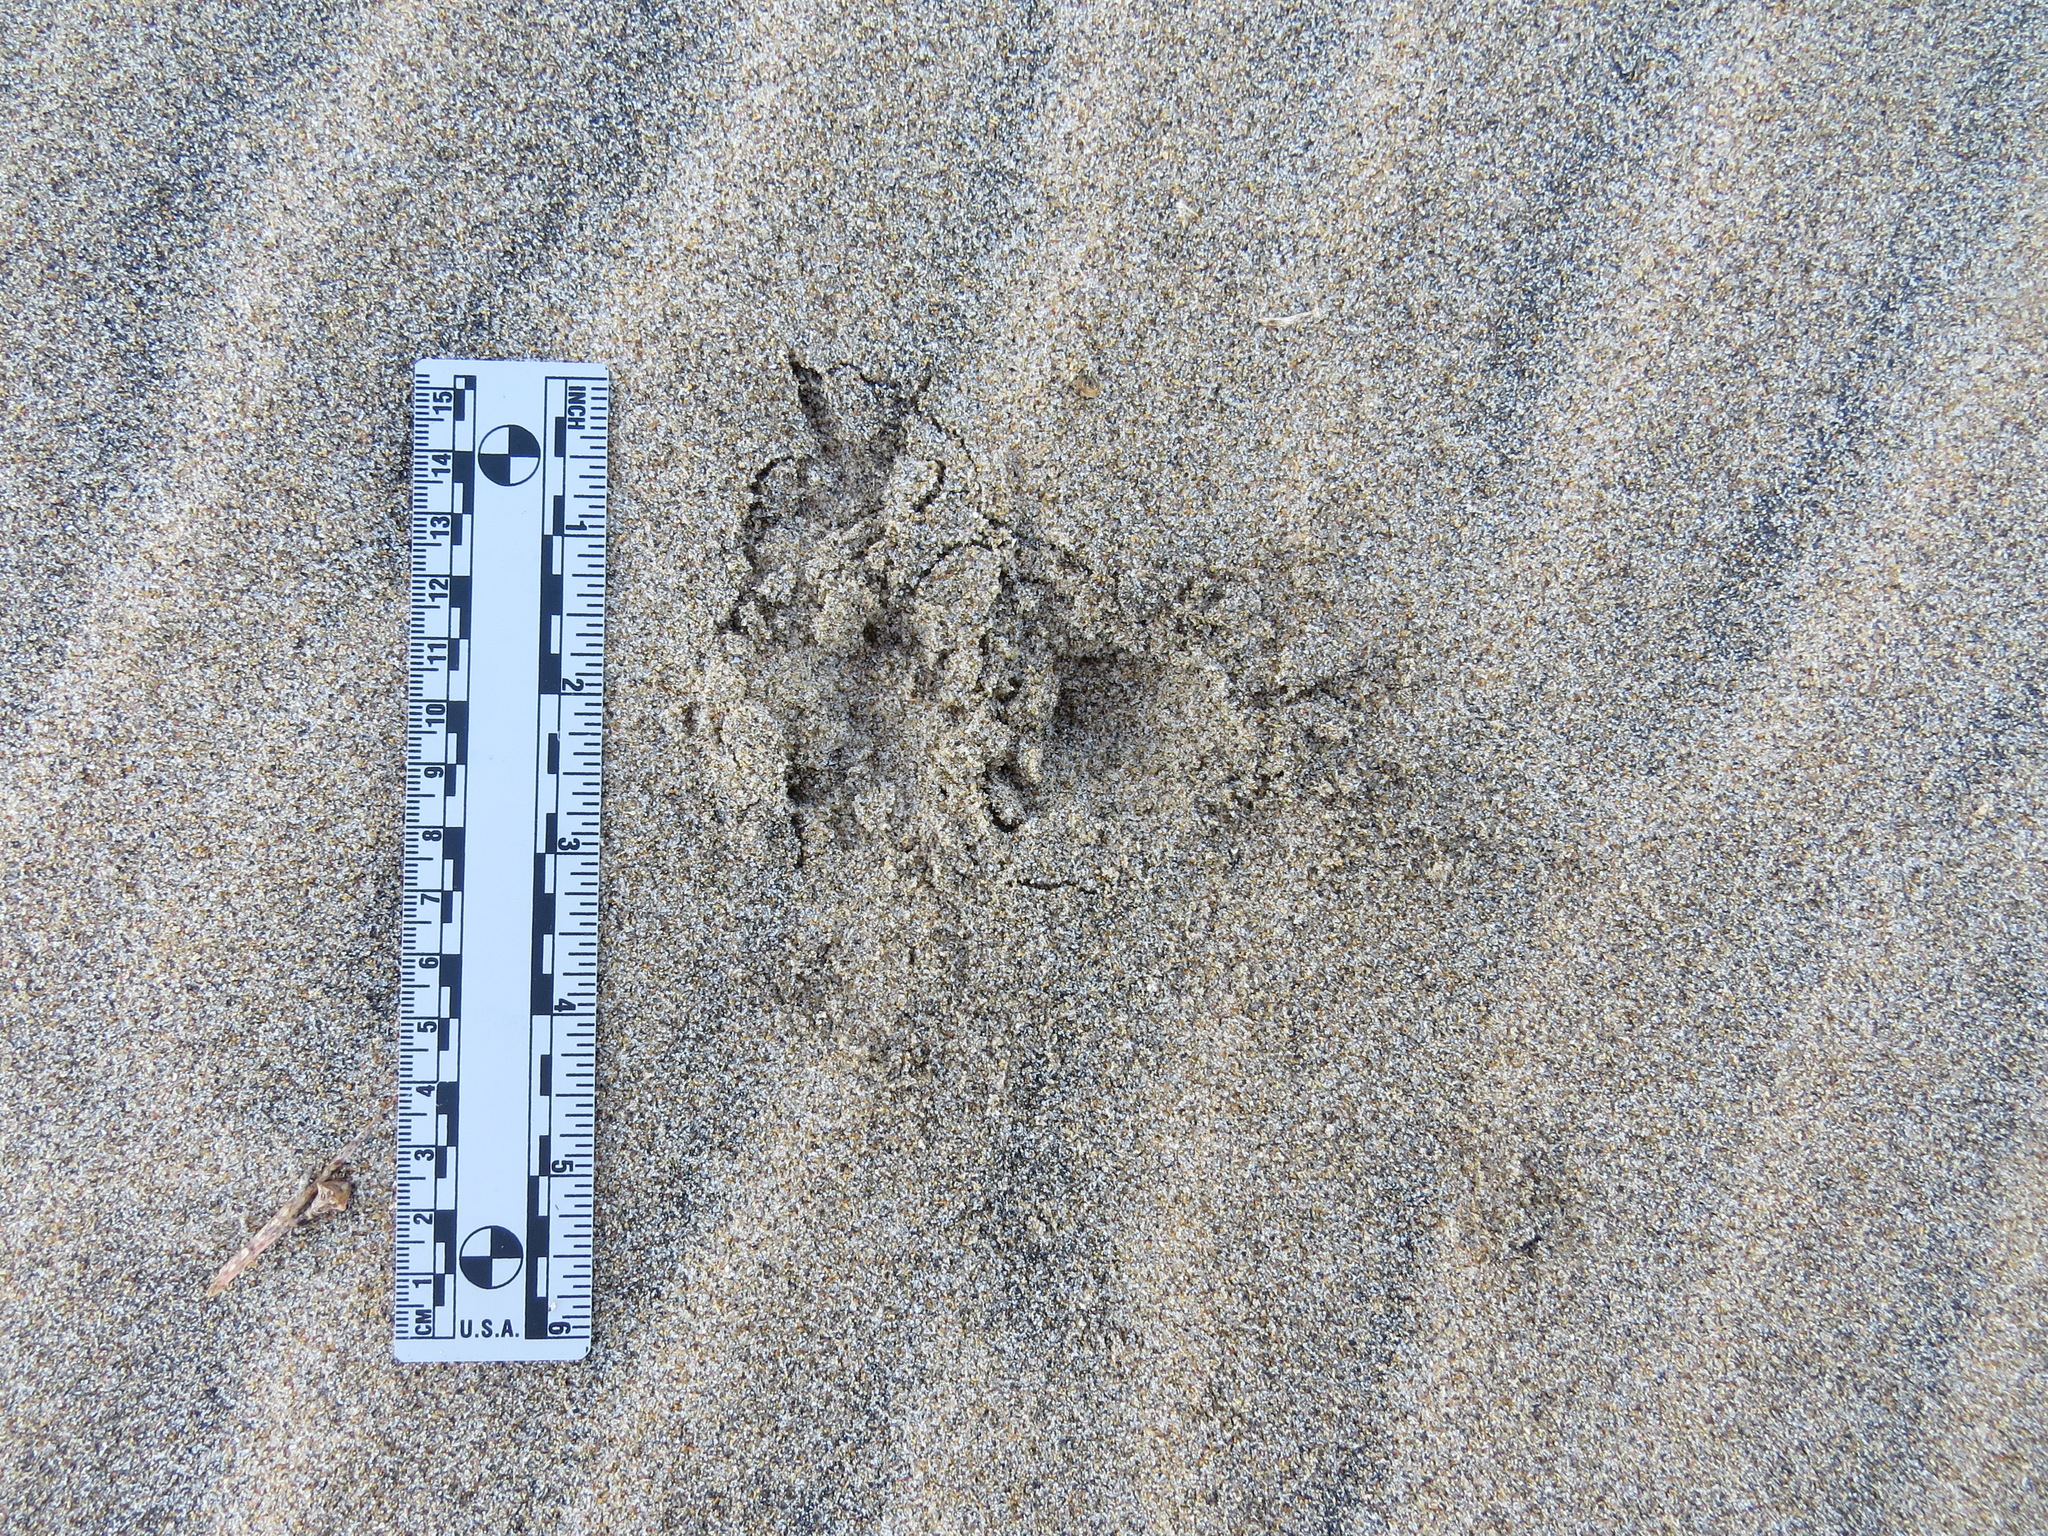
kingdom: Animalia
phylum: Chordata
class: Aves
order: Strigiformes
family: Strigidae
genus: Athene
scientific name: Athene cunicularia
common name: Burrowing owl
